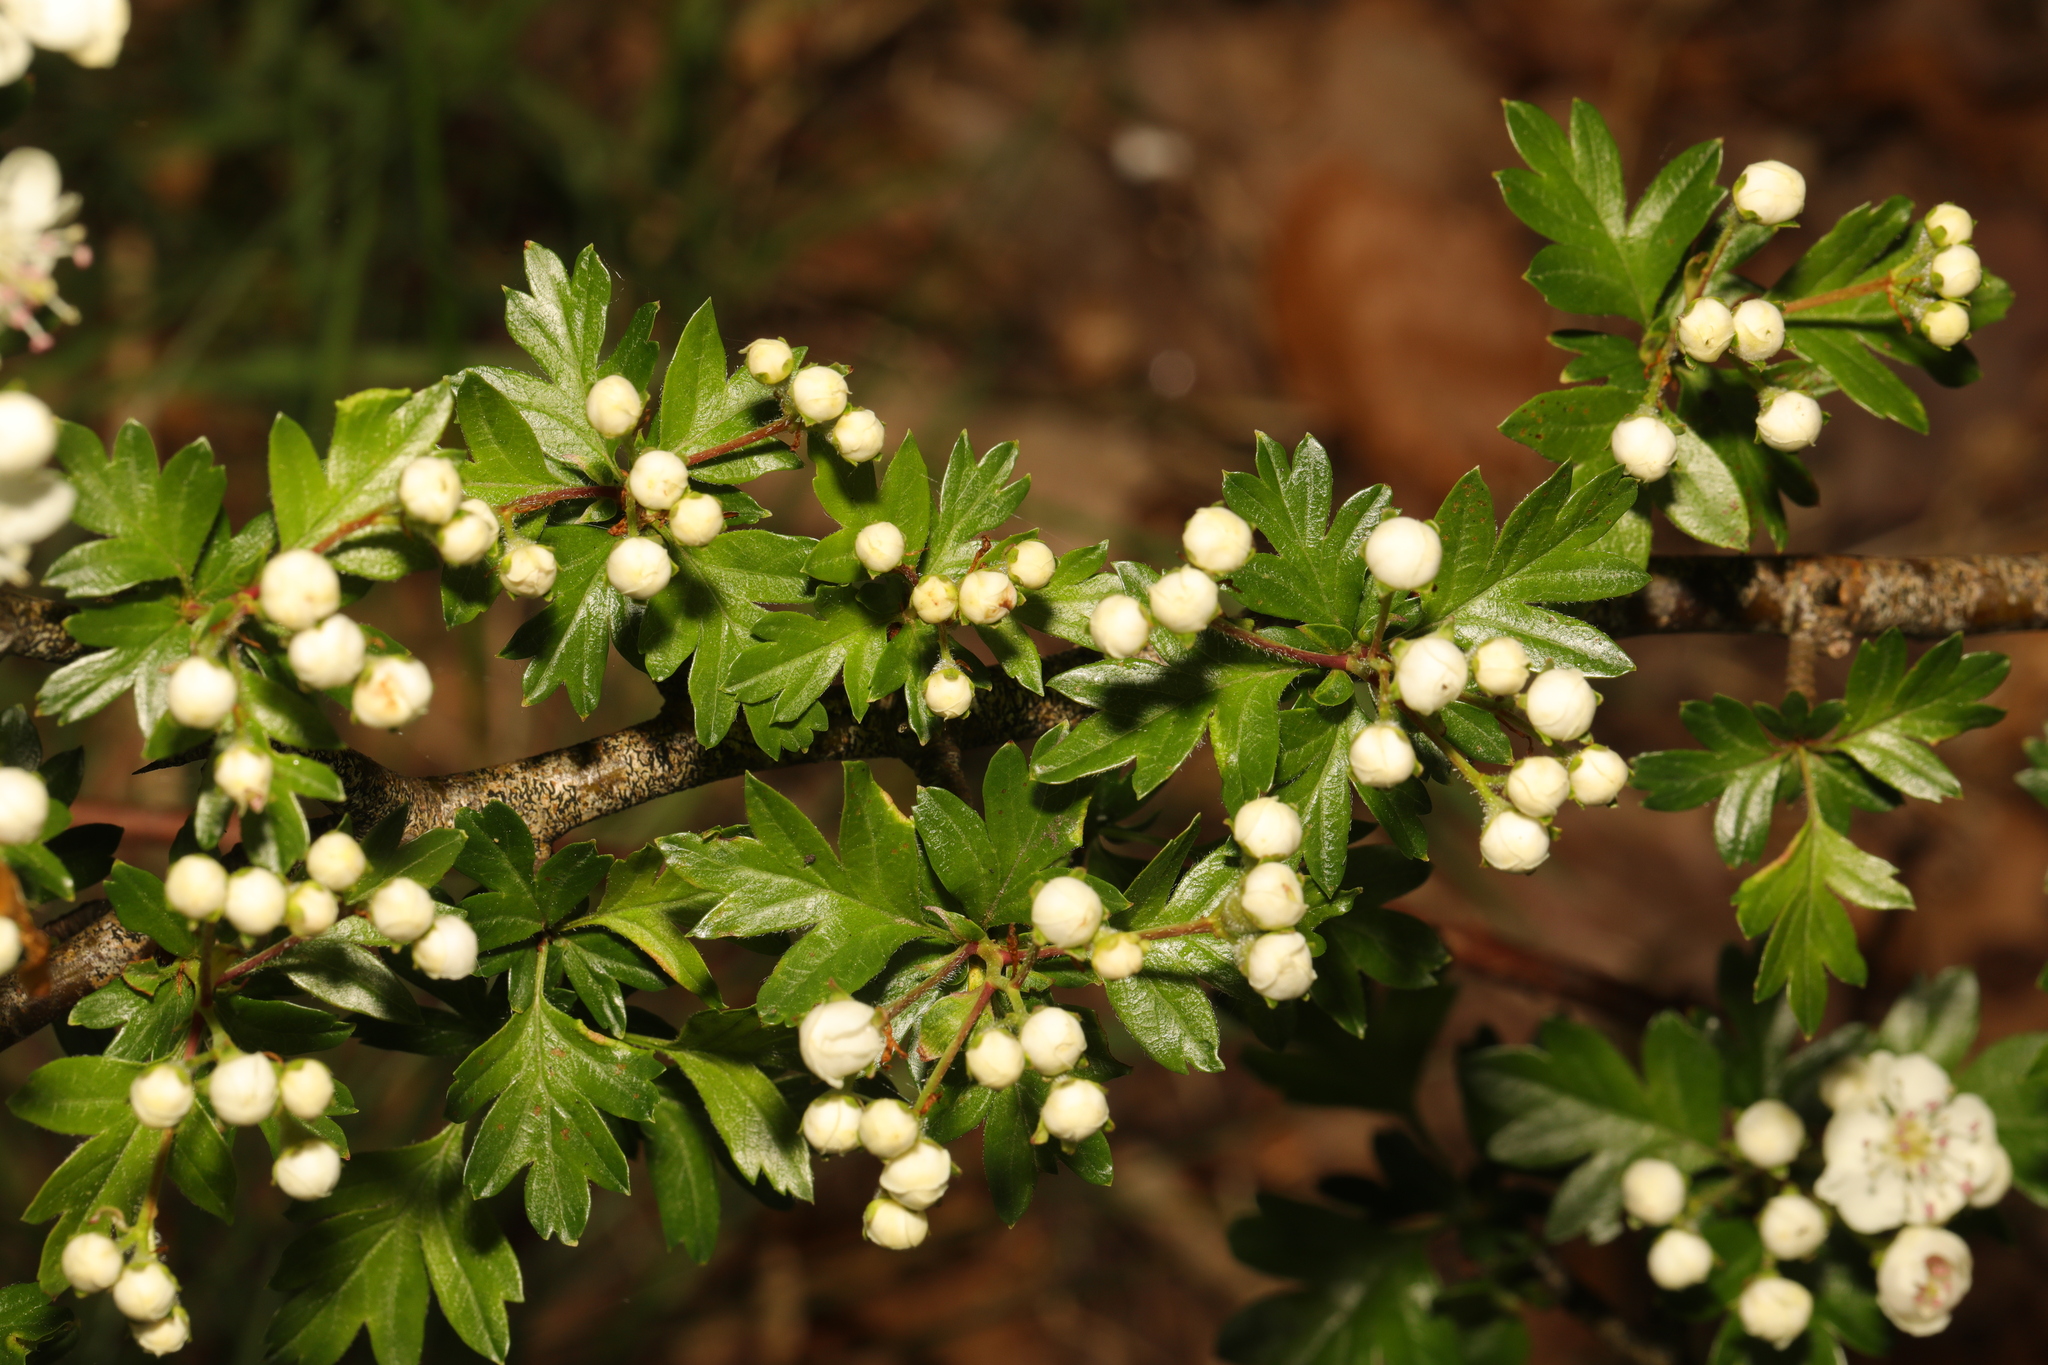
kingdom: Plantae
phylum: Tracheophyta
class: Magnoliopsida
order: Rosales
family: Rosaceae
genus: Crataegus
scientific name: Crataegus monogyna
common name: Hawthorn
